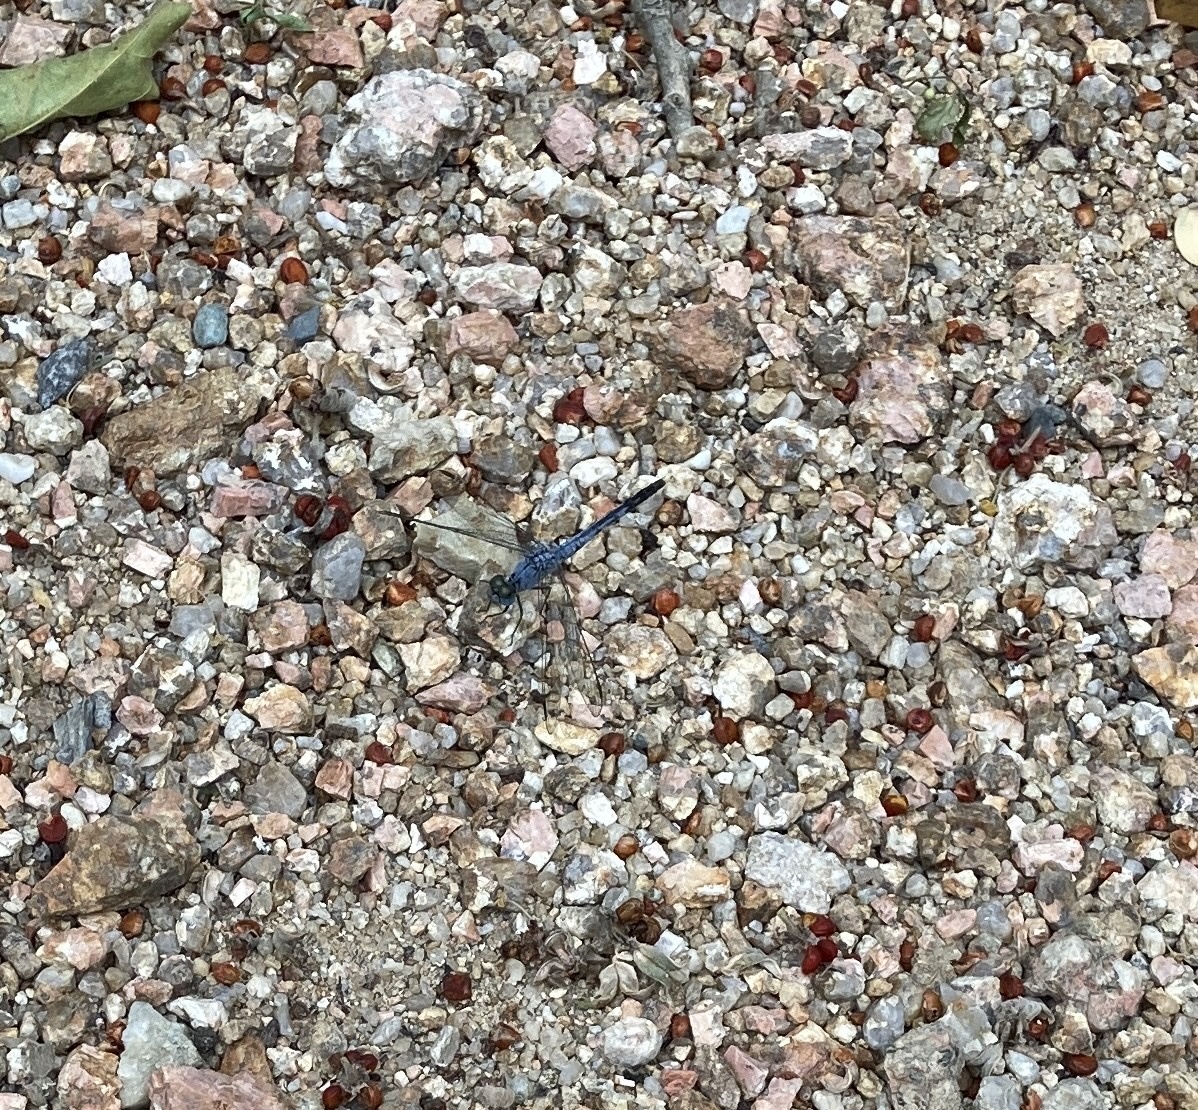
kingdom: Animalia
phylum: Arthropoda
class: Insecta
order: Odonata
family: Libellulidae
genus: Diplacodes
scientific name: Diplacodes trivialis
